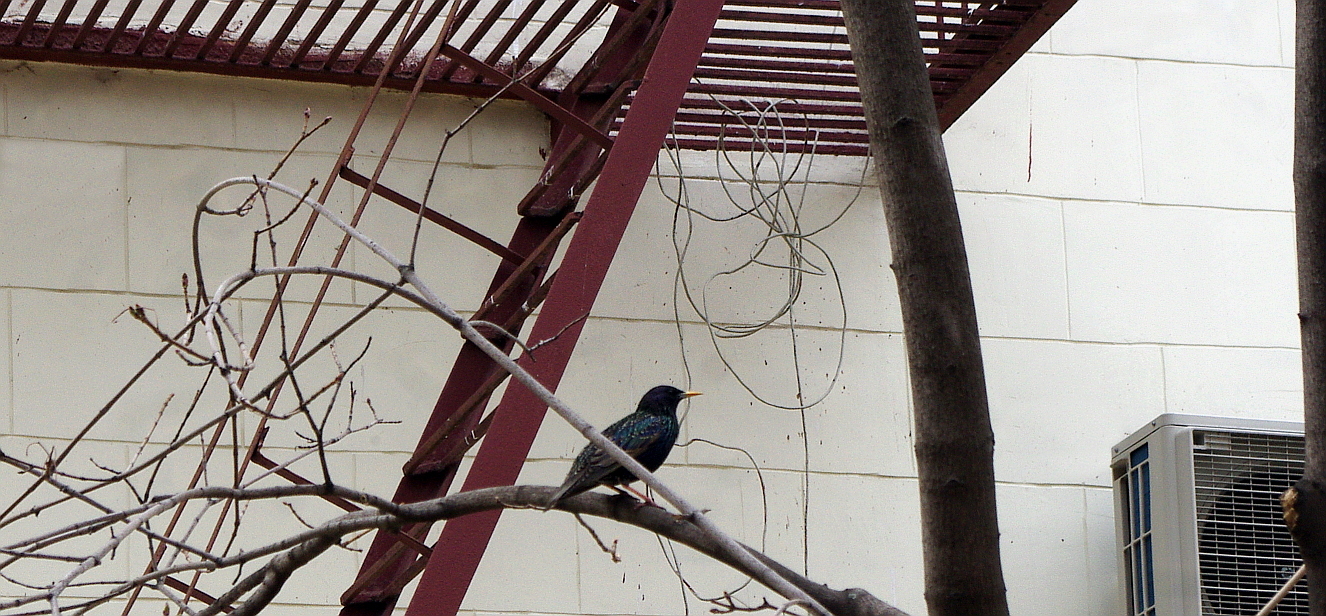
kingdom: Animalia
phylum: Chordata
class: Aves
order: Passeriformes
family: Sturnidae
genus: Sturnus
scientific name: Sturnus vulgaris
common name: Common starling
